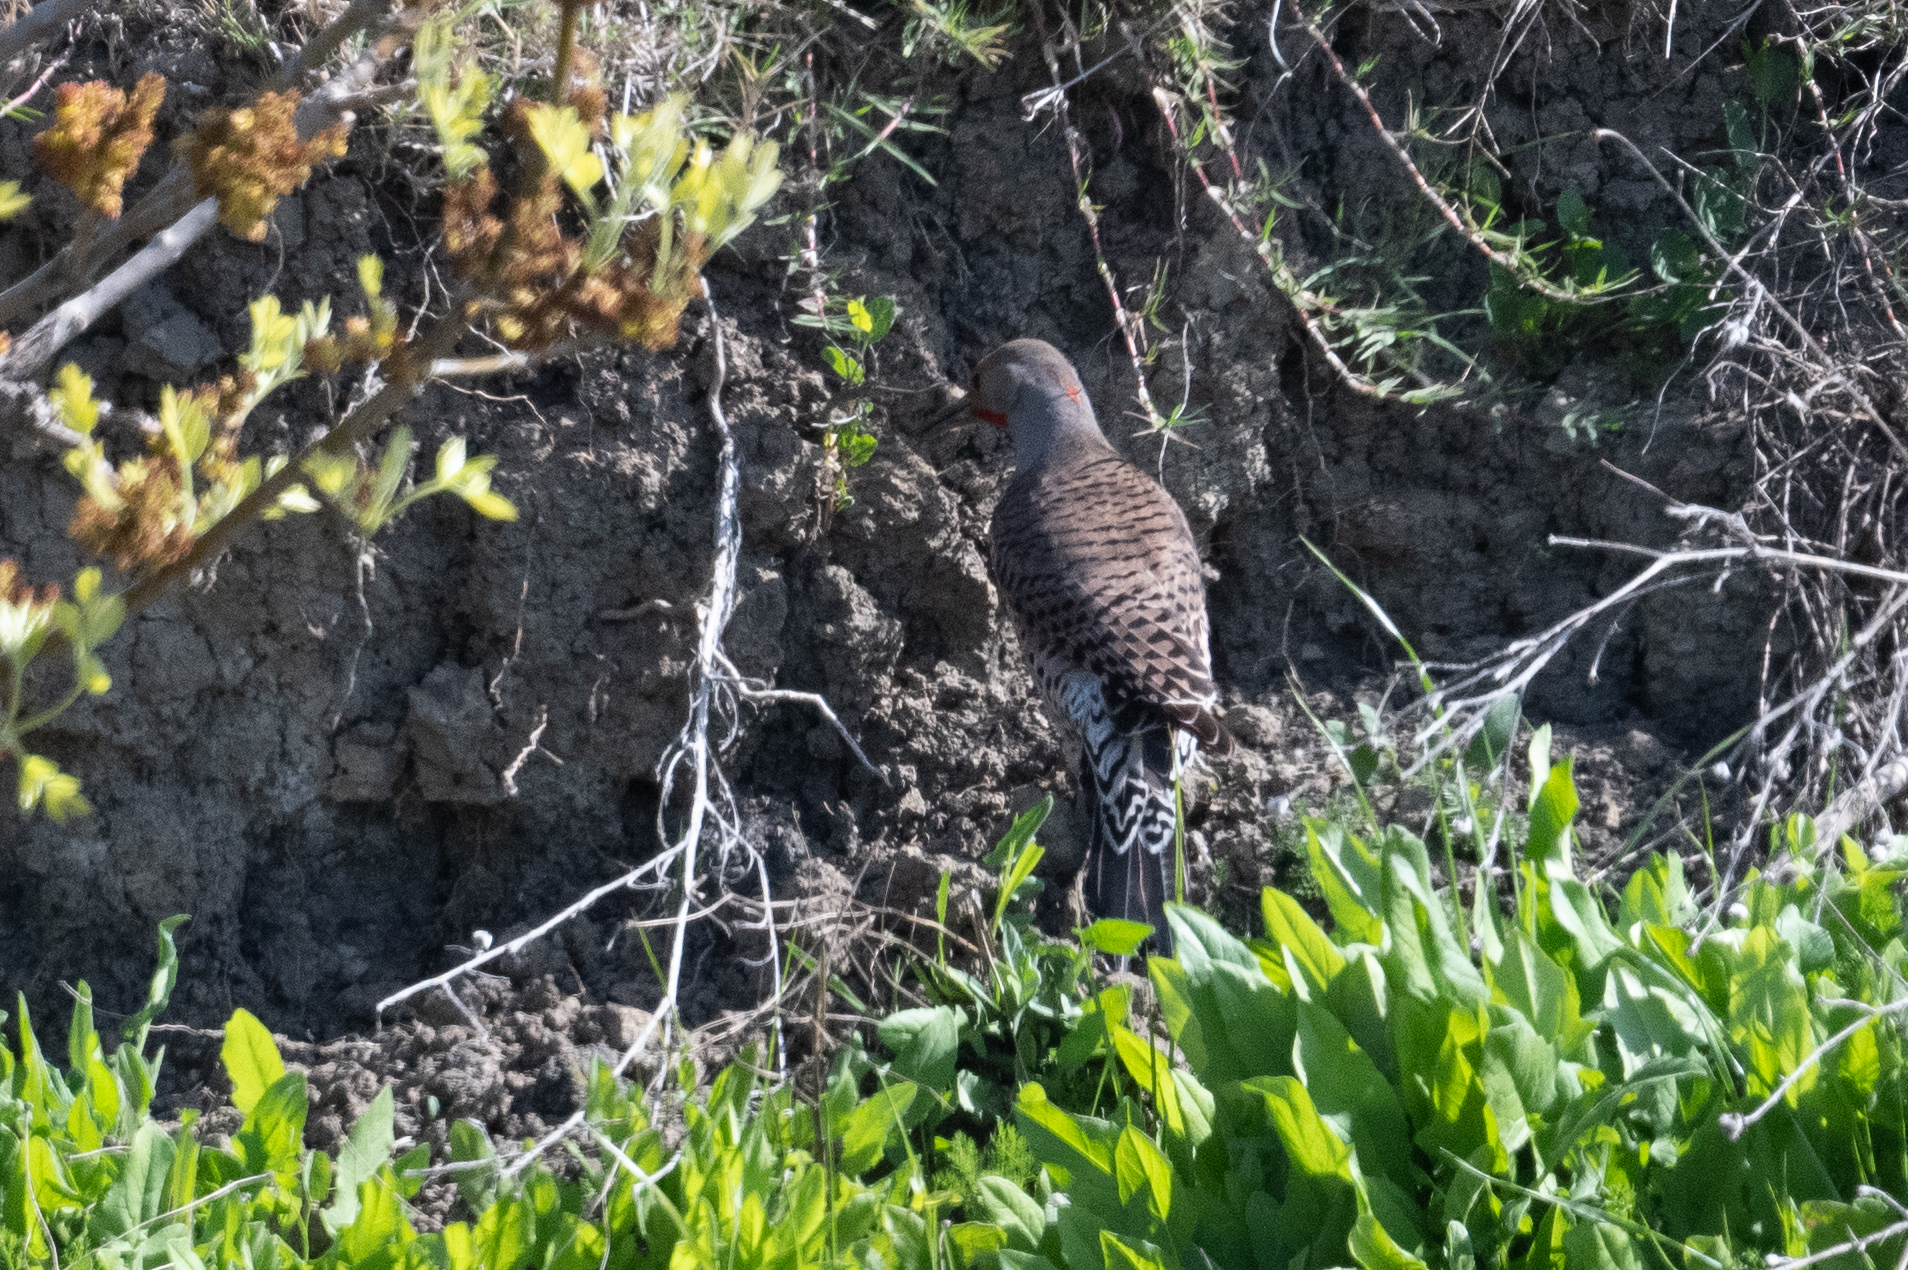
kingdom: Animalia
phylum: Chordata
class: Aves
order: Piciformes
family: Picidae
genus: Colaptes
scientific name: Colaptes auratus
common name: Northern flicker
